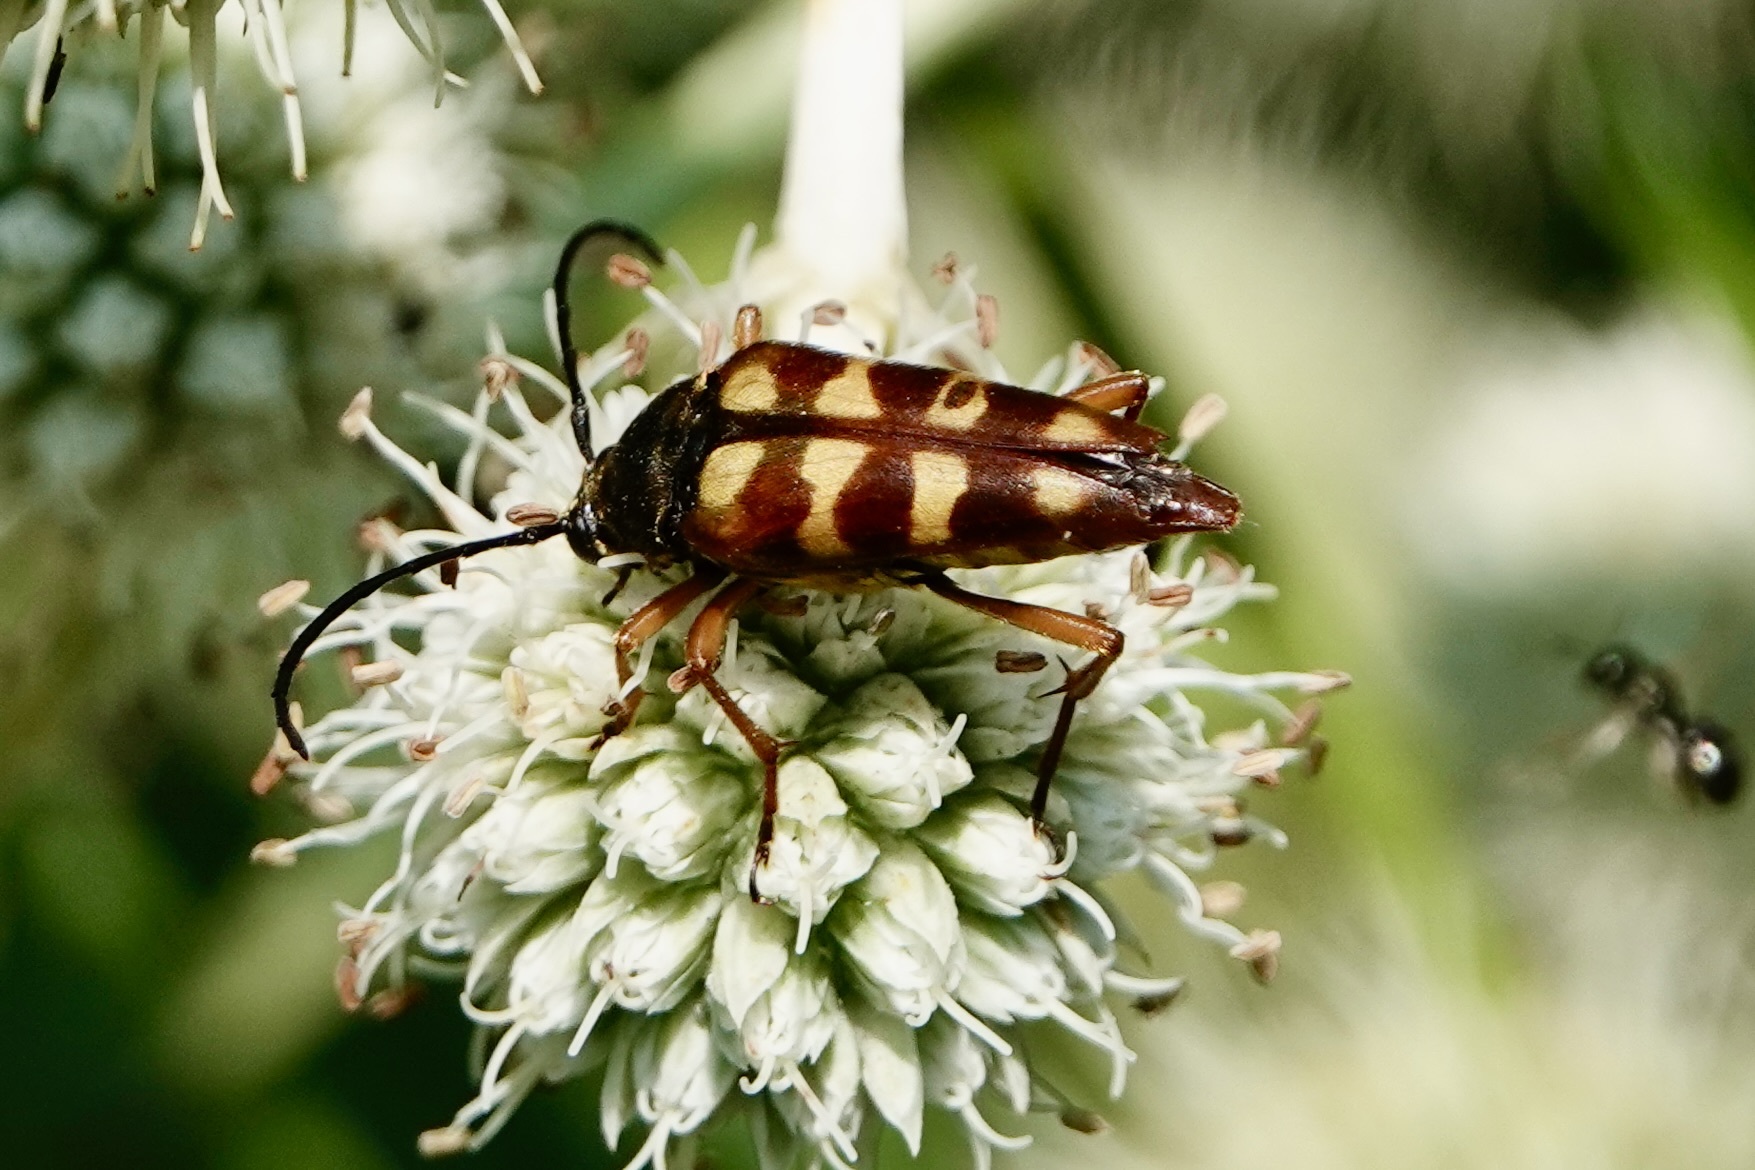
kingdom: Animalia
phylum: Arthropoda
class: Insecta
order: Coleoptera
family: Cerambycidae
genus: Typocerus
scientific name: Typocerus velutinus
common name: Banded longhorn beetle
